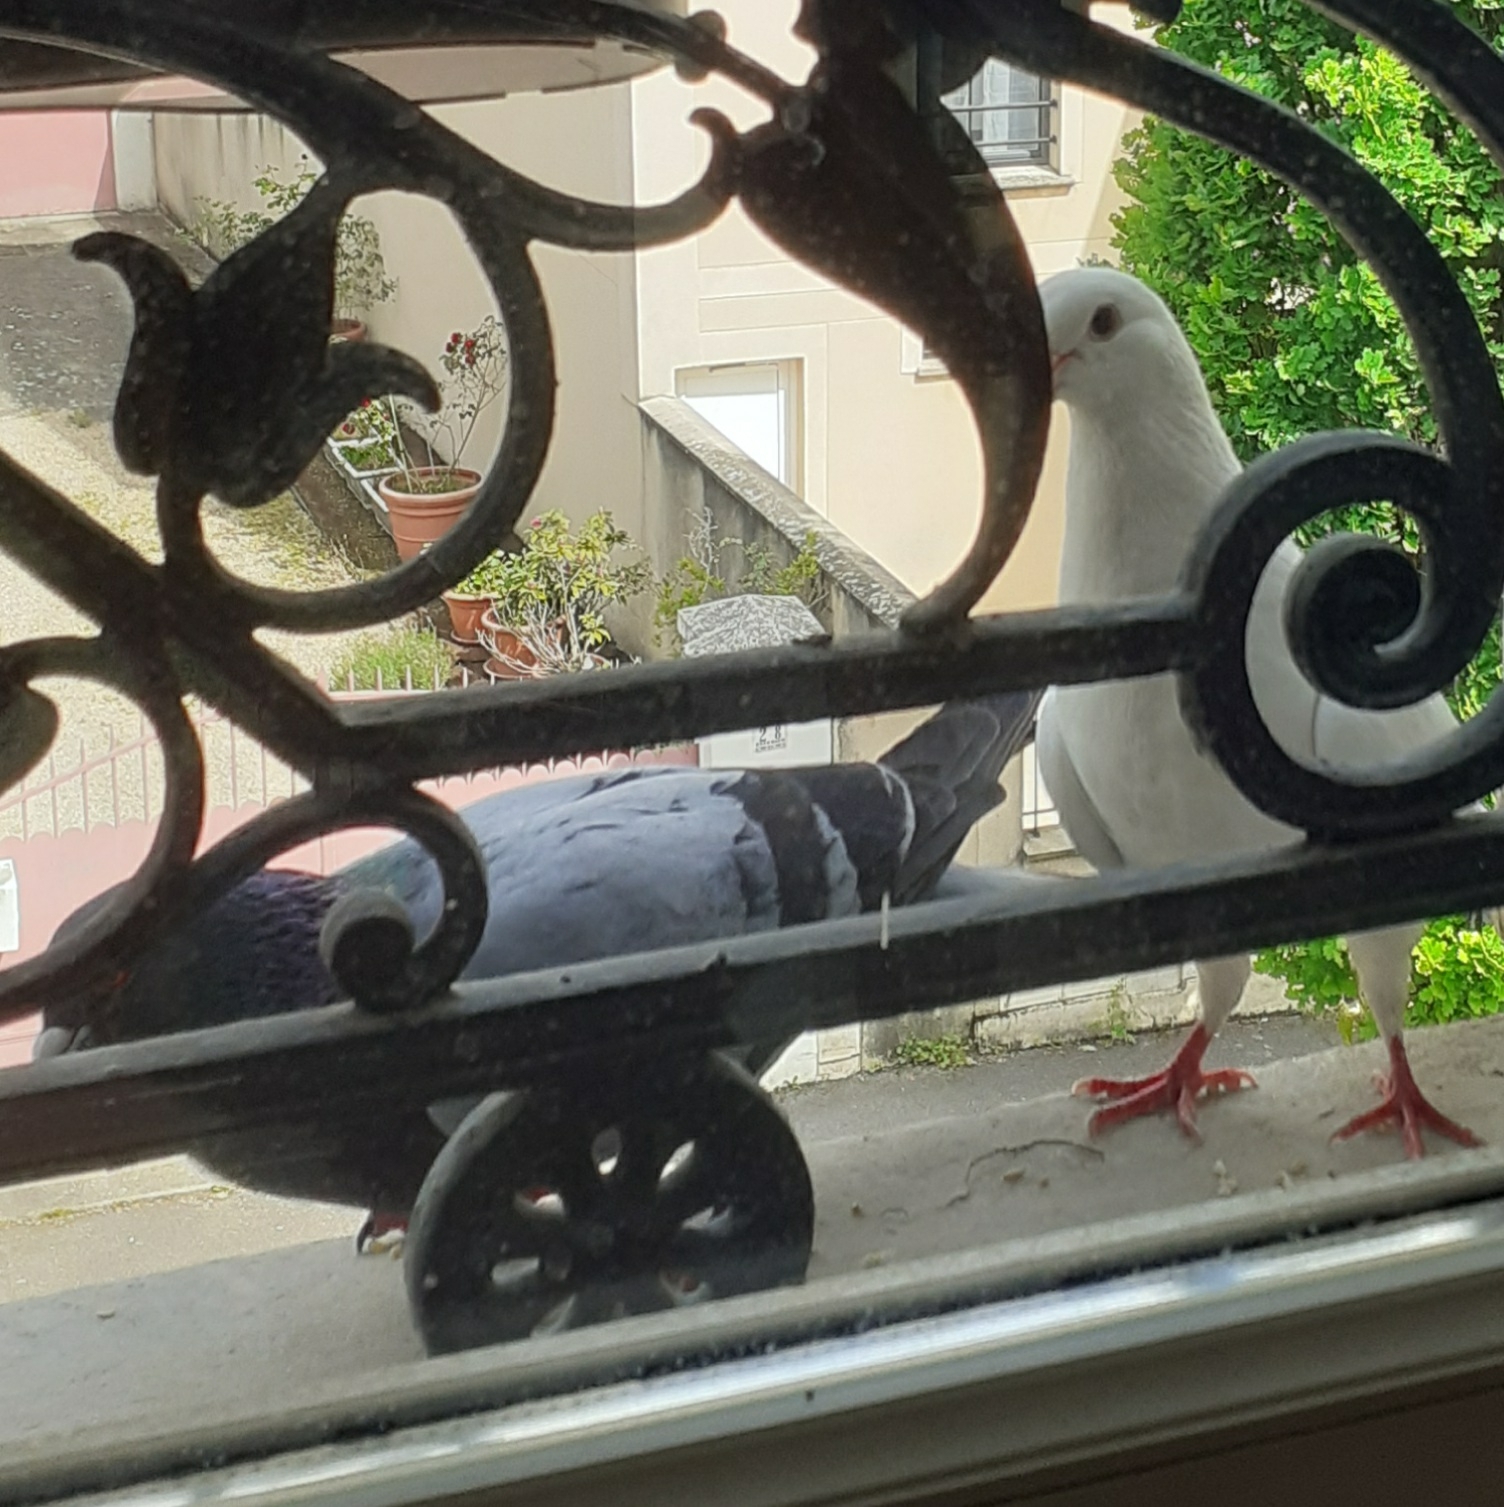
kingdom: Animalia
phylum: Chordata
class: Aves
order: Columbiformes
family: Columbidae
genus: Columba
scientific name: Columba livia
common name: Rock pigeon
